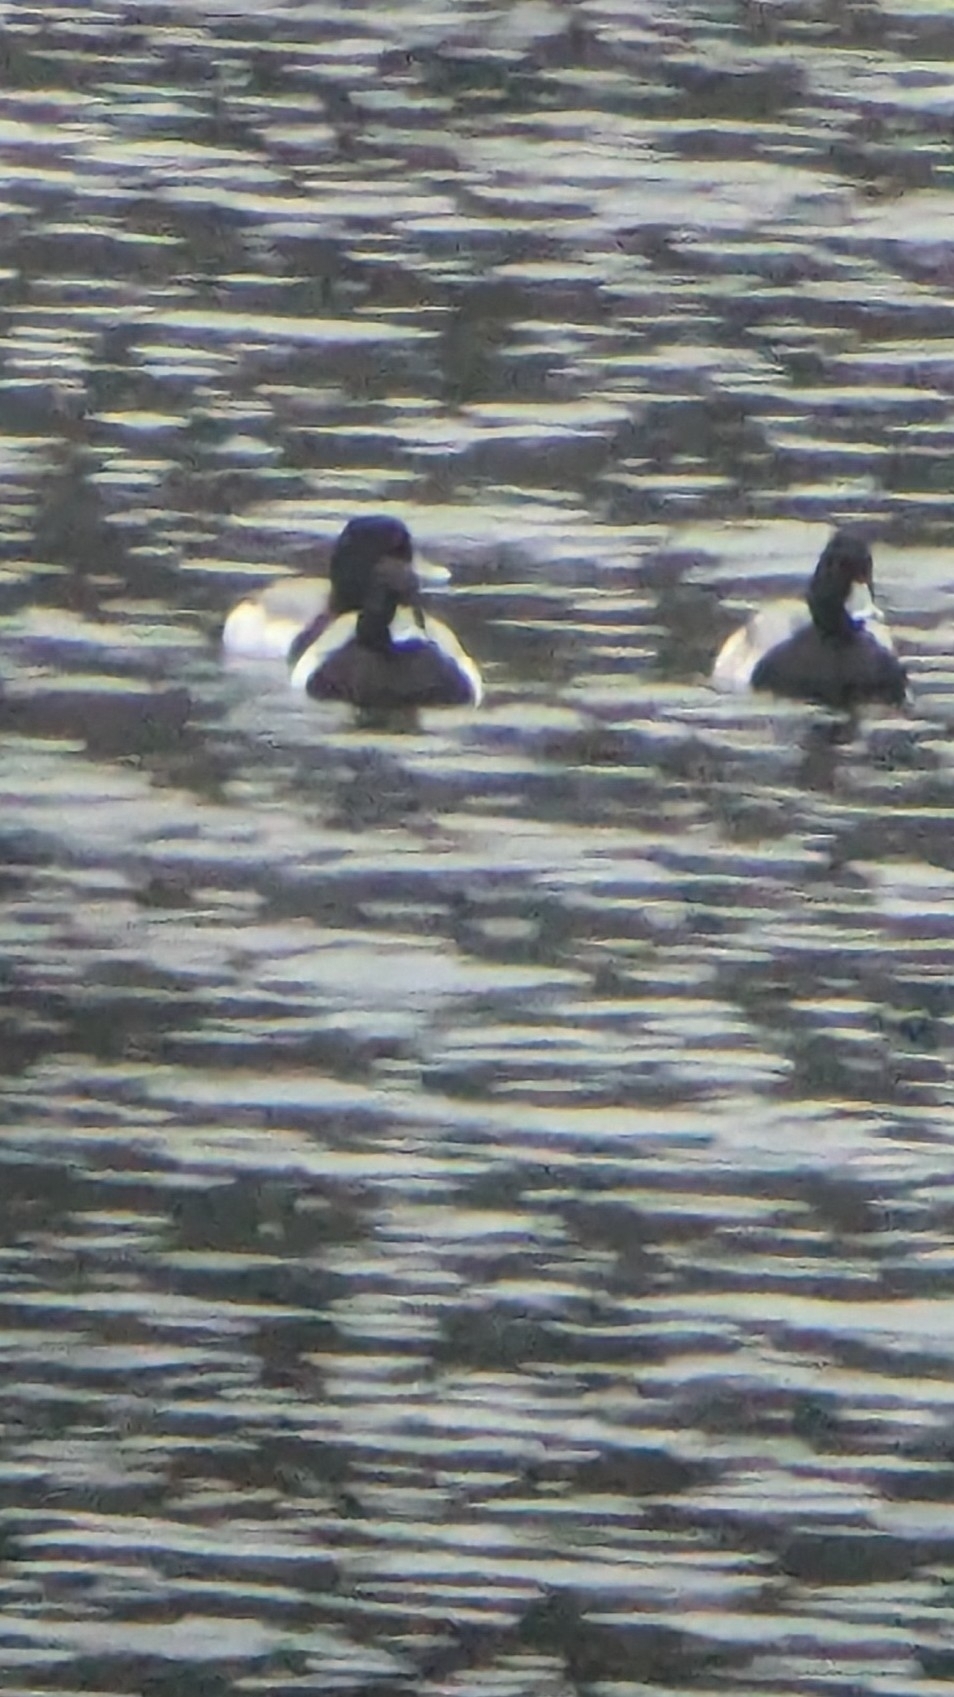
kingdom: Animalia
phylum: Chordata
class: Aves
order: Anseriformes
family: Anatidae
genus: Aythya
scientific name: Aythya affinis
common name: Lesser scaup
